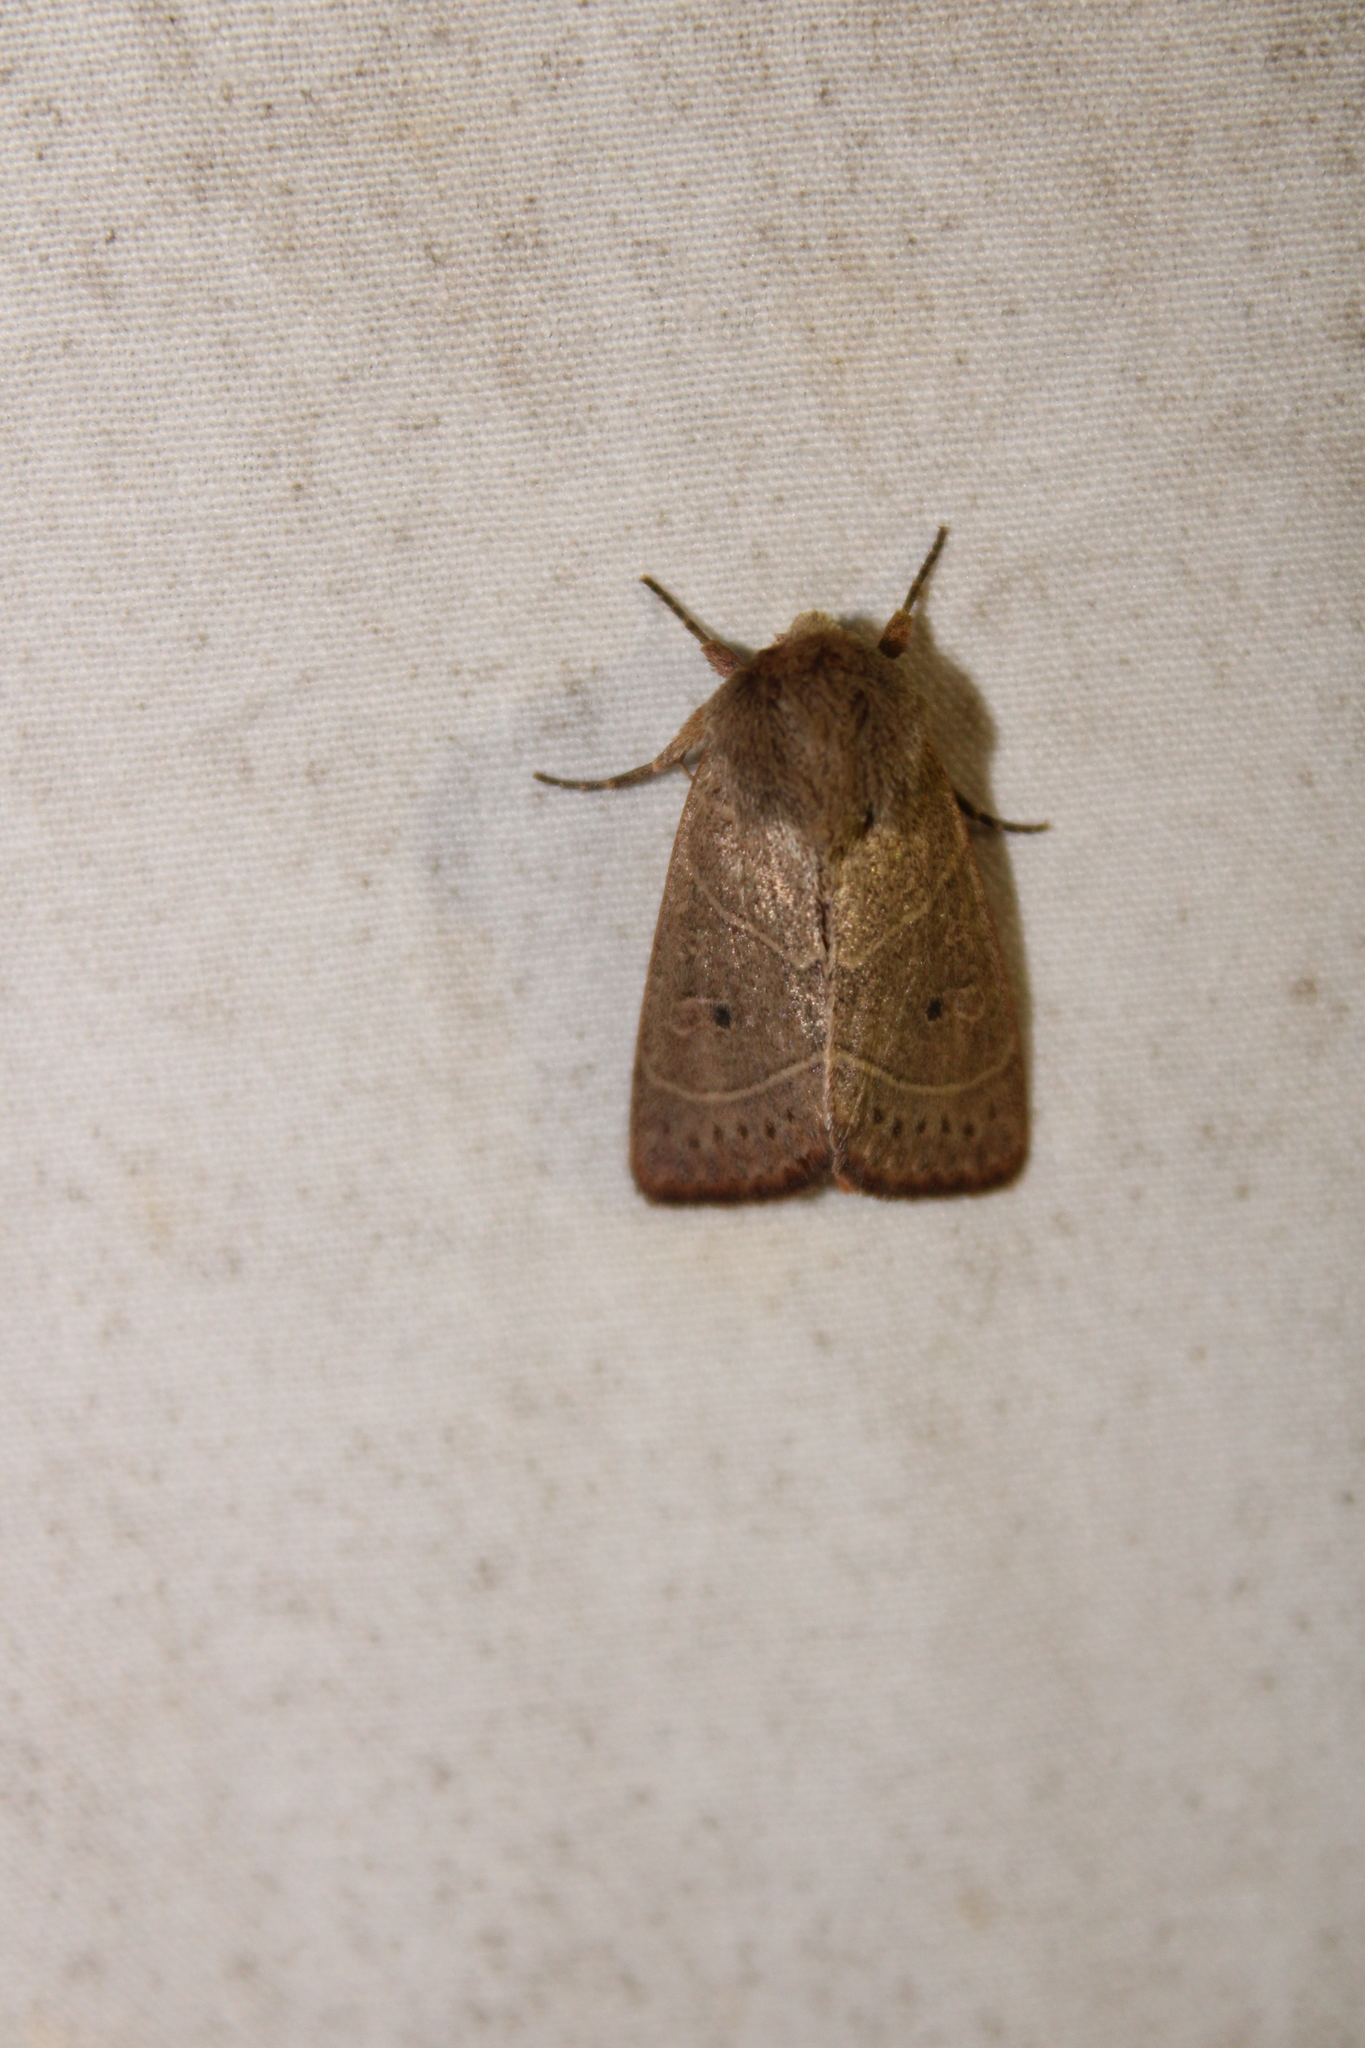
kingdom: Animalia
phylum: Arthropoda
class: Insecta
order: Lepidoptera
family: Noctuidae
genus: Ulolonche
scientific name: Ulolonche culea
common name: Sheathed quaker
